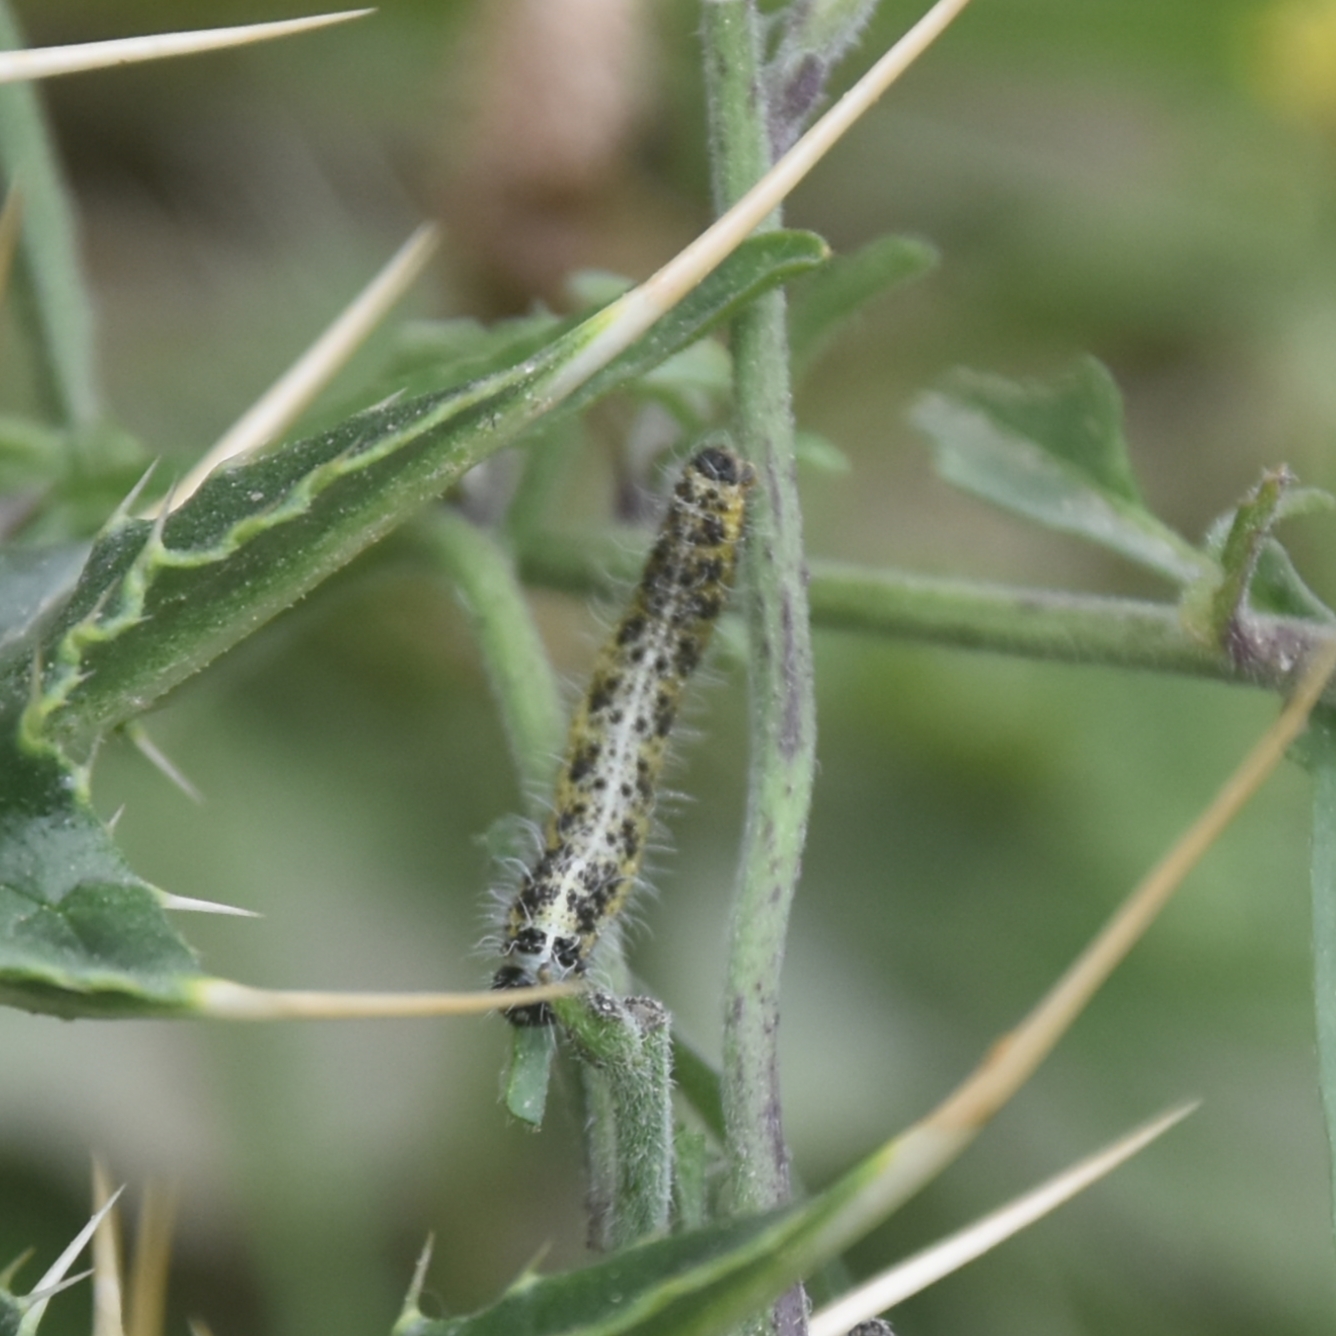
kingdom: Animalia
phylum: Arthropoda
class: Insecta
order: Lepidoptera
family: Pieridae
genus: Pieris
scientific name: Pieris brassicae
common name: Large white
